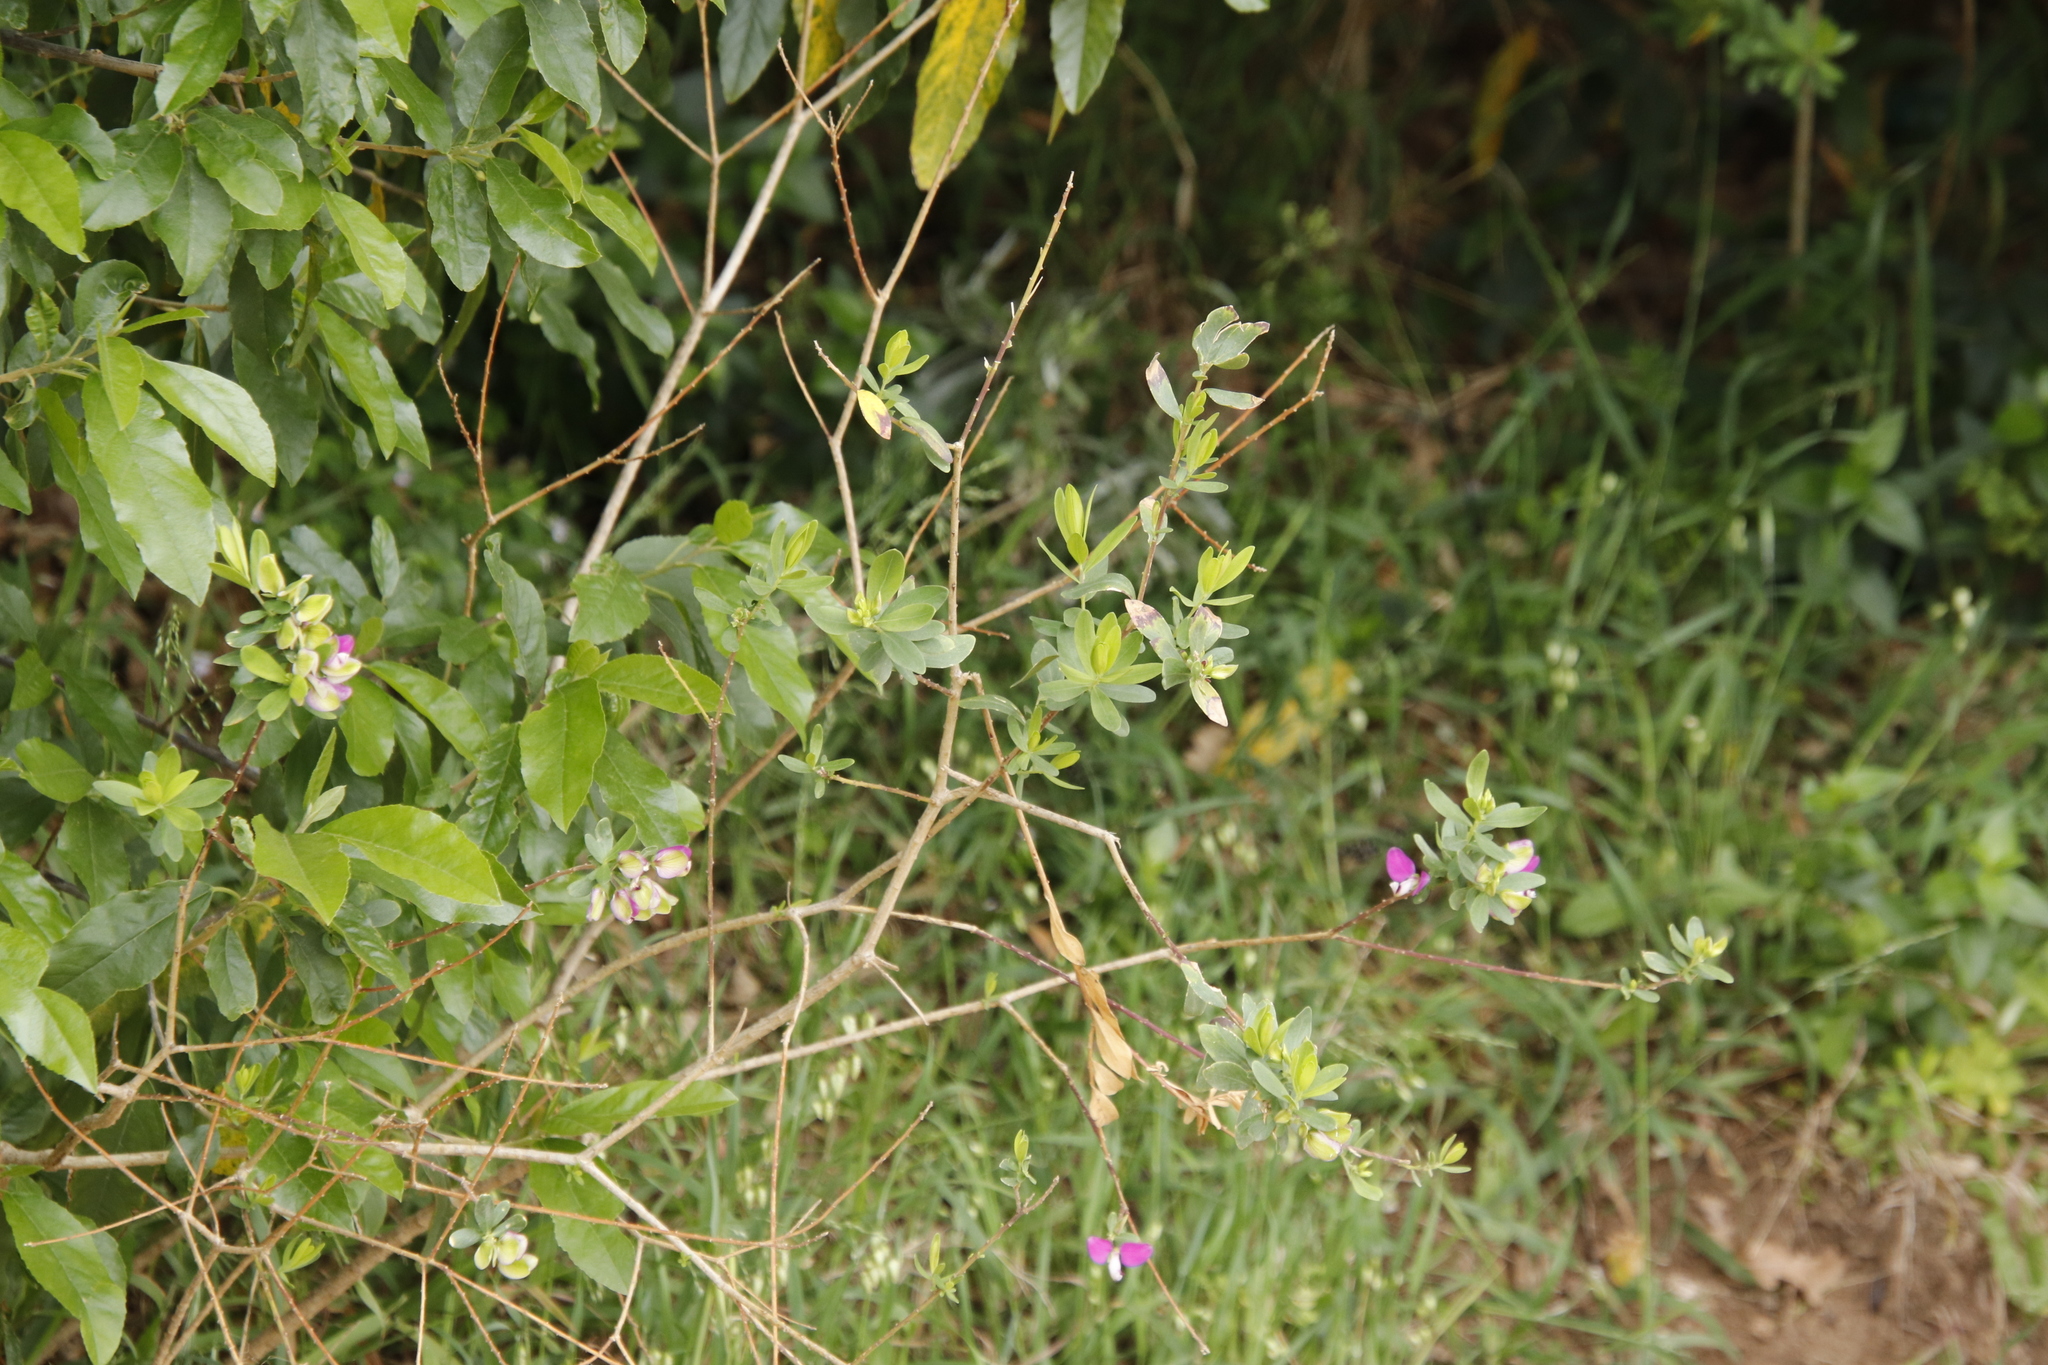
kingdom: Plantae
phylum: Tracheophyta
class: Magnoliopsida
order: Fabales
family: Polygalaceae
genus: Polygala
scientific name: Polygala myrtifolia
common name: Myrtle-leaf milkwort
